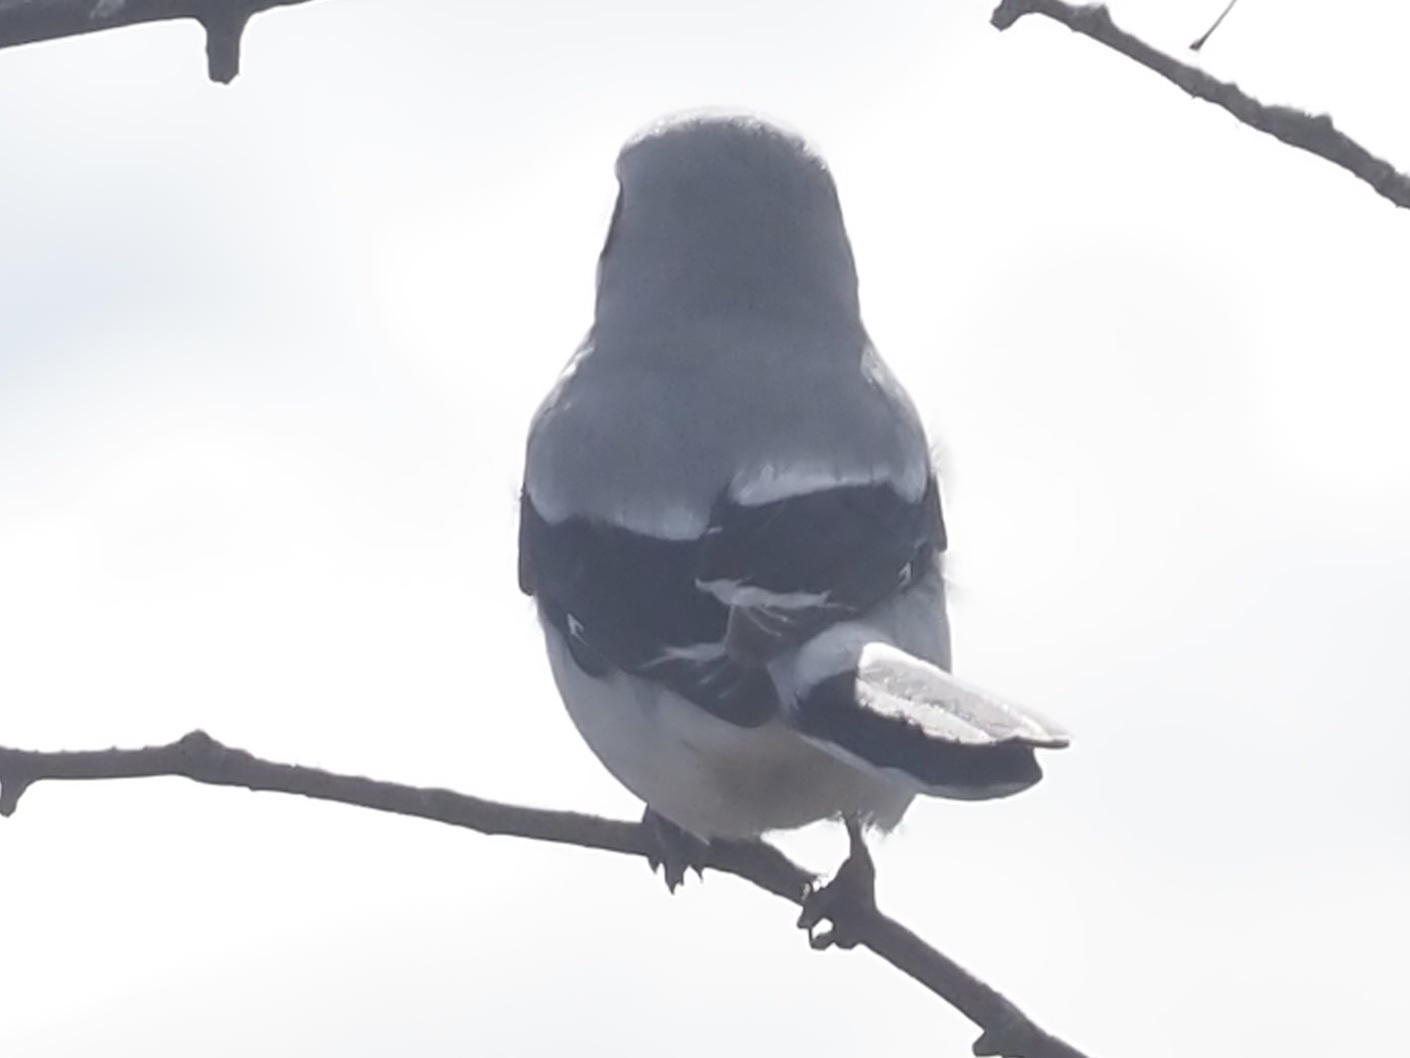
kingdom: Animalia
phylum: Chordata
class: Aves
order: Passeriformes
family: Laniidae
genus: Lanius
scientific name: Lanius borealis
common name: Northern shrike
